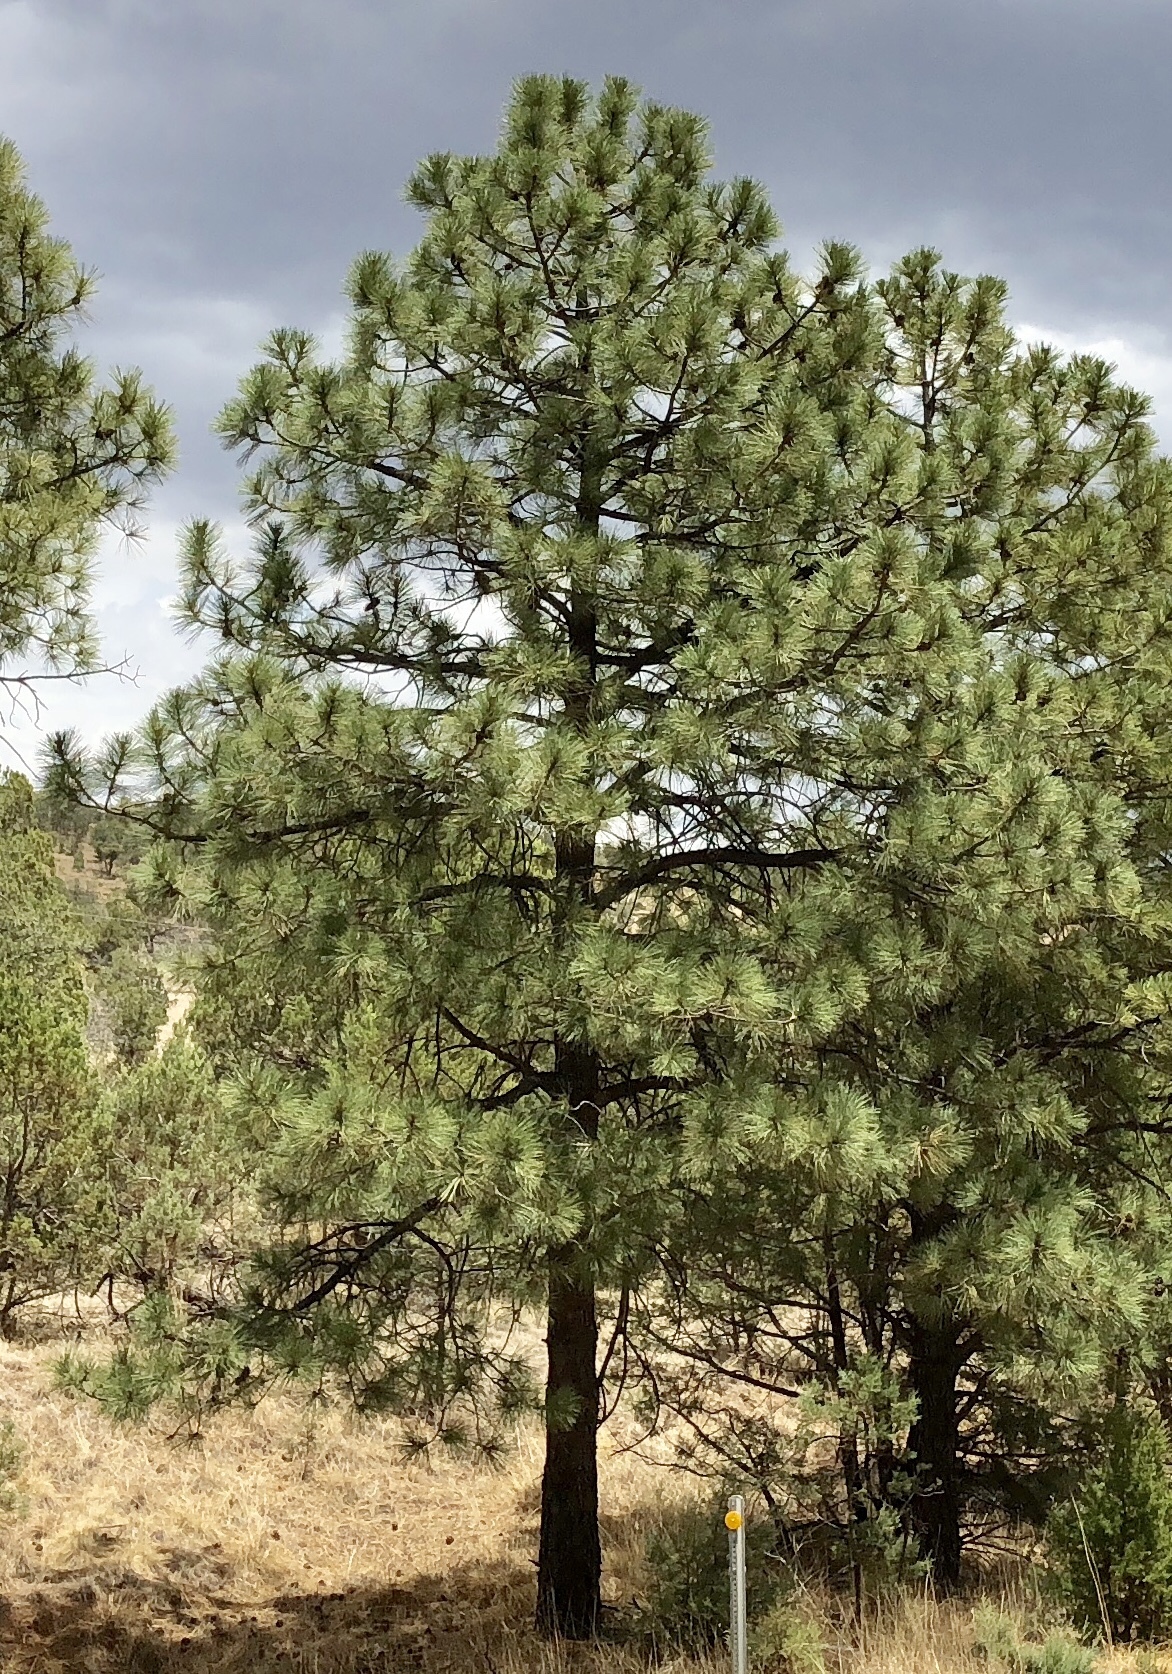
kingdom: Plantae
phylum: Tracheophyta
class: Pinopsida
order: Pinales
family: Pinaceae
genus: Pinus
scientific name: Pinus ponderosa
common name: Western yellow-pine
